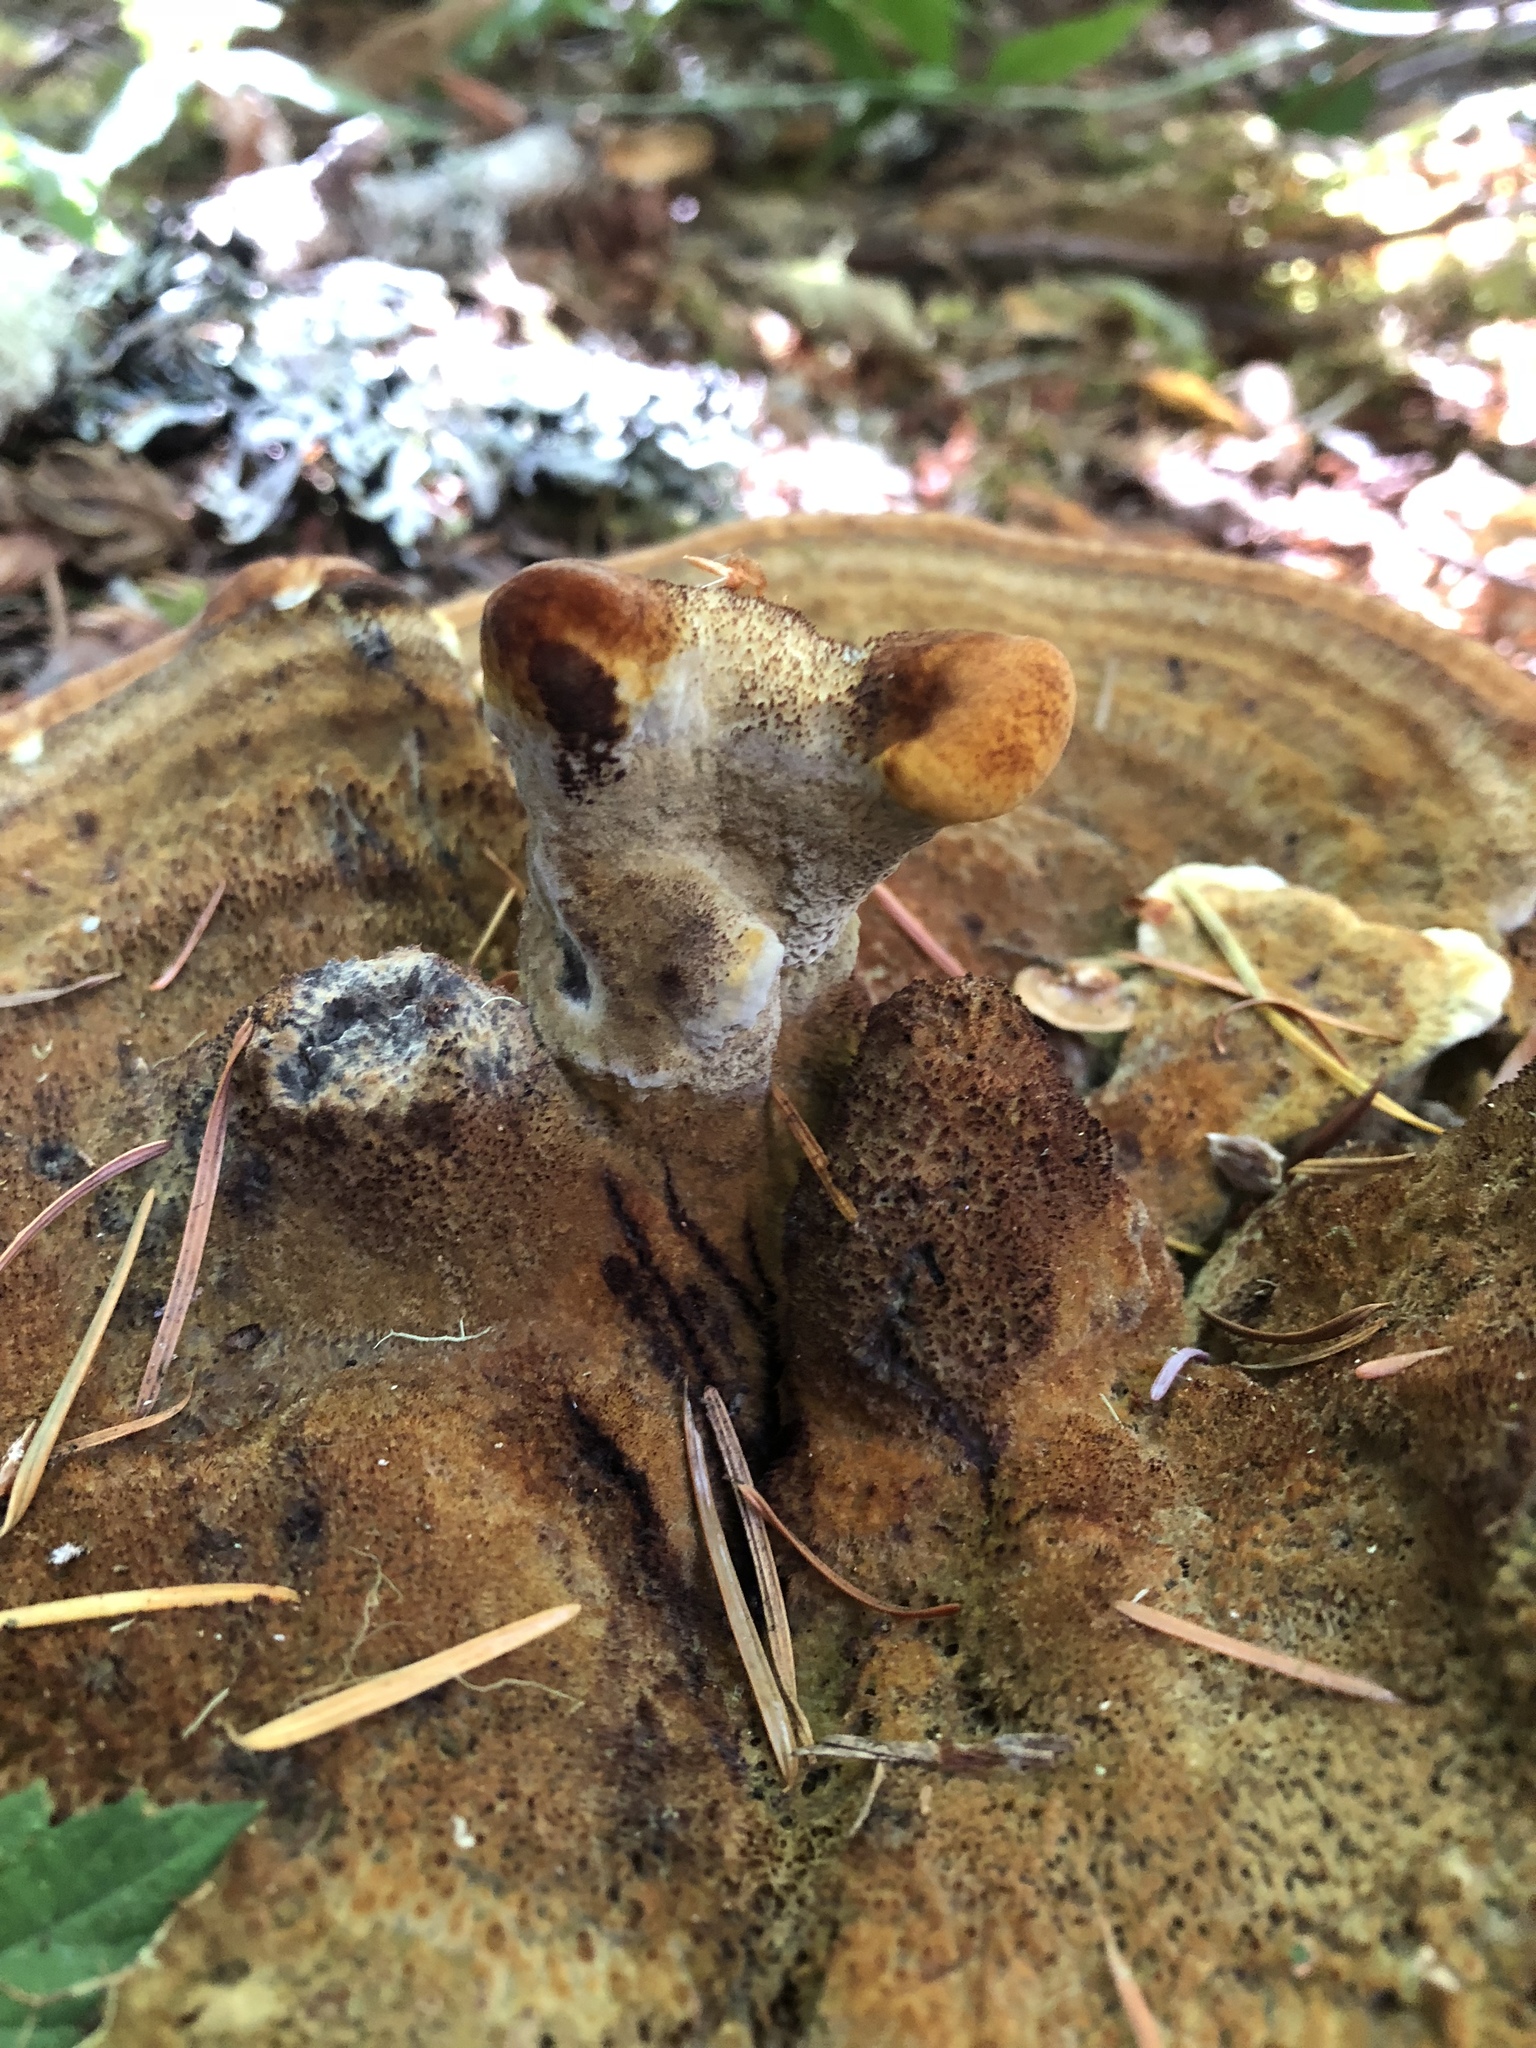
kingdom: Fungi
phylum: Basidiomycota
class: Agaricomycetes
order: Polyporales
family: Laetiporaceae
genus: Phaeolus
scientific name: Phaeolus schweinitzii
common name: Dyer's mazegill
